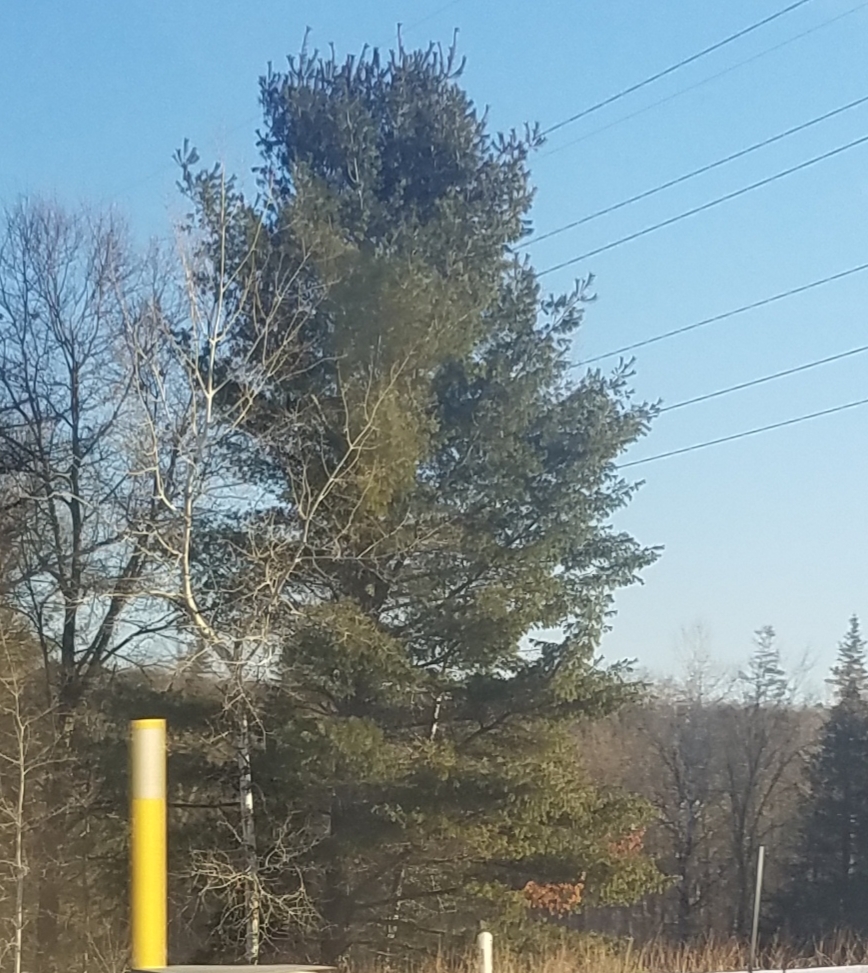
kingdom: Plantae
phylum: Tracheophyta
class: Pinopsida
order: Pinales
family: Pinaceae
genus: Pinus
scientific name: Pinus strobus
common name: Weymouth pine
